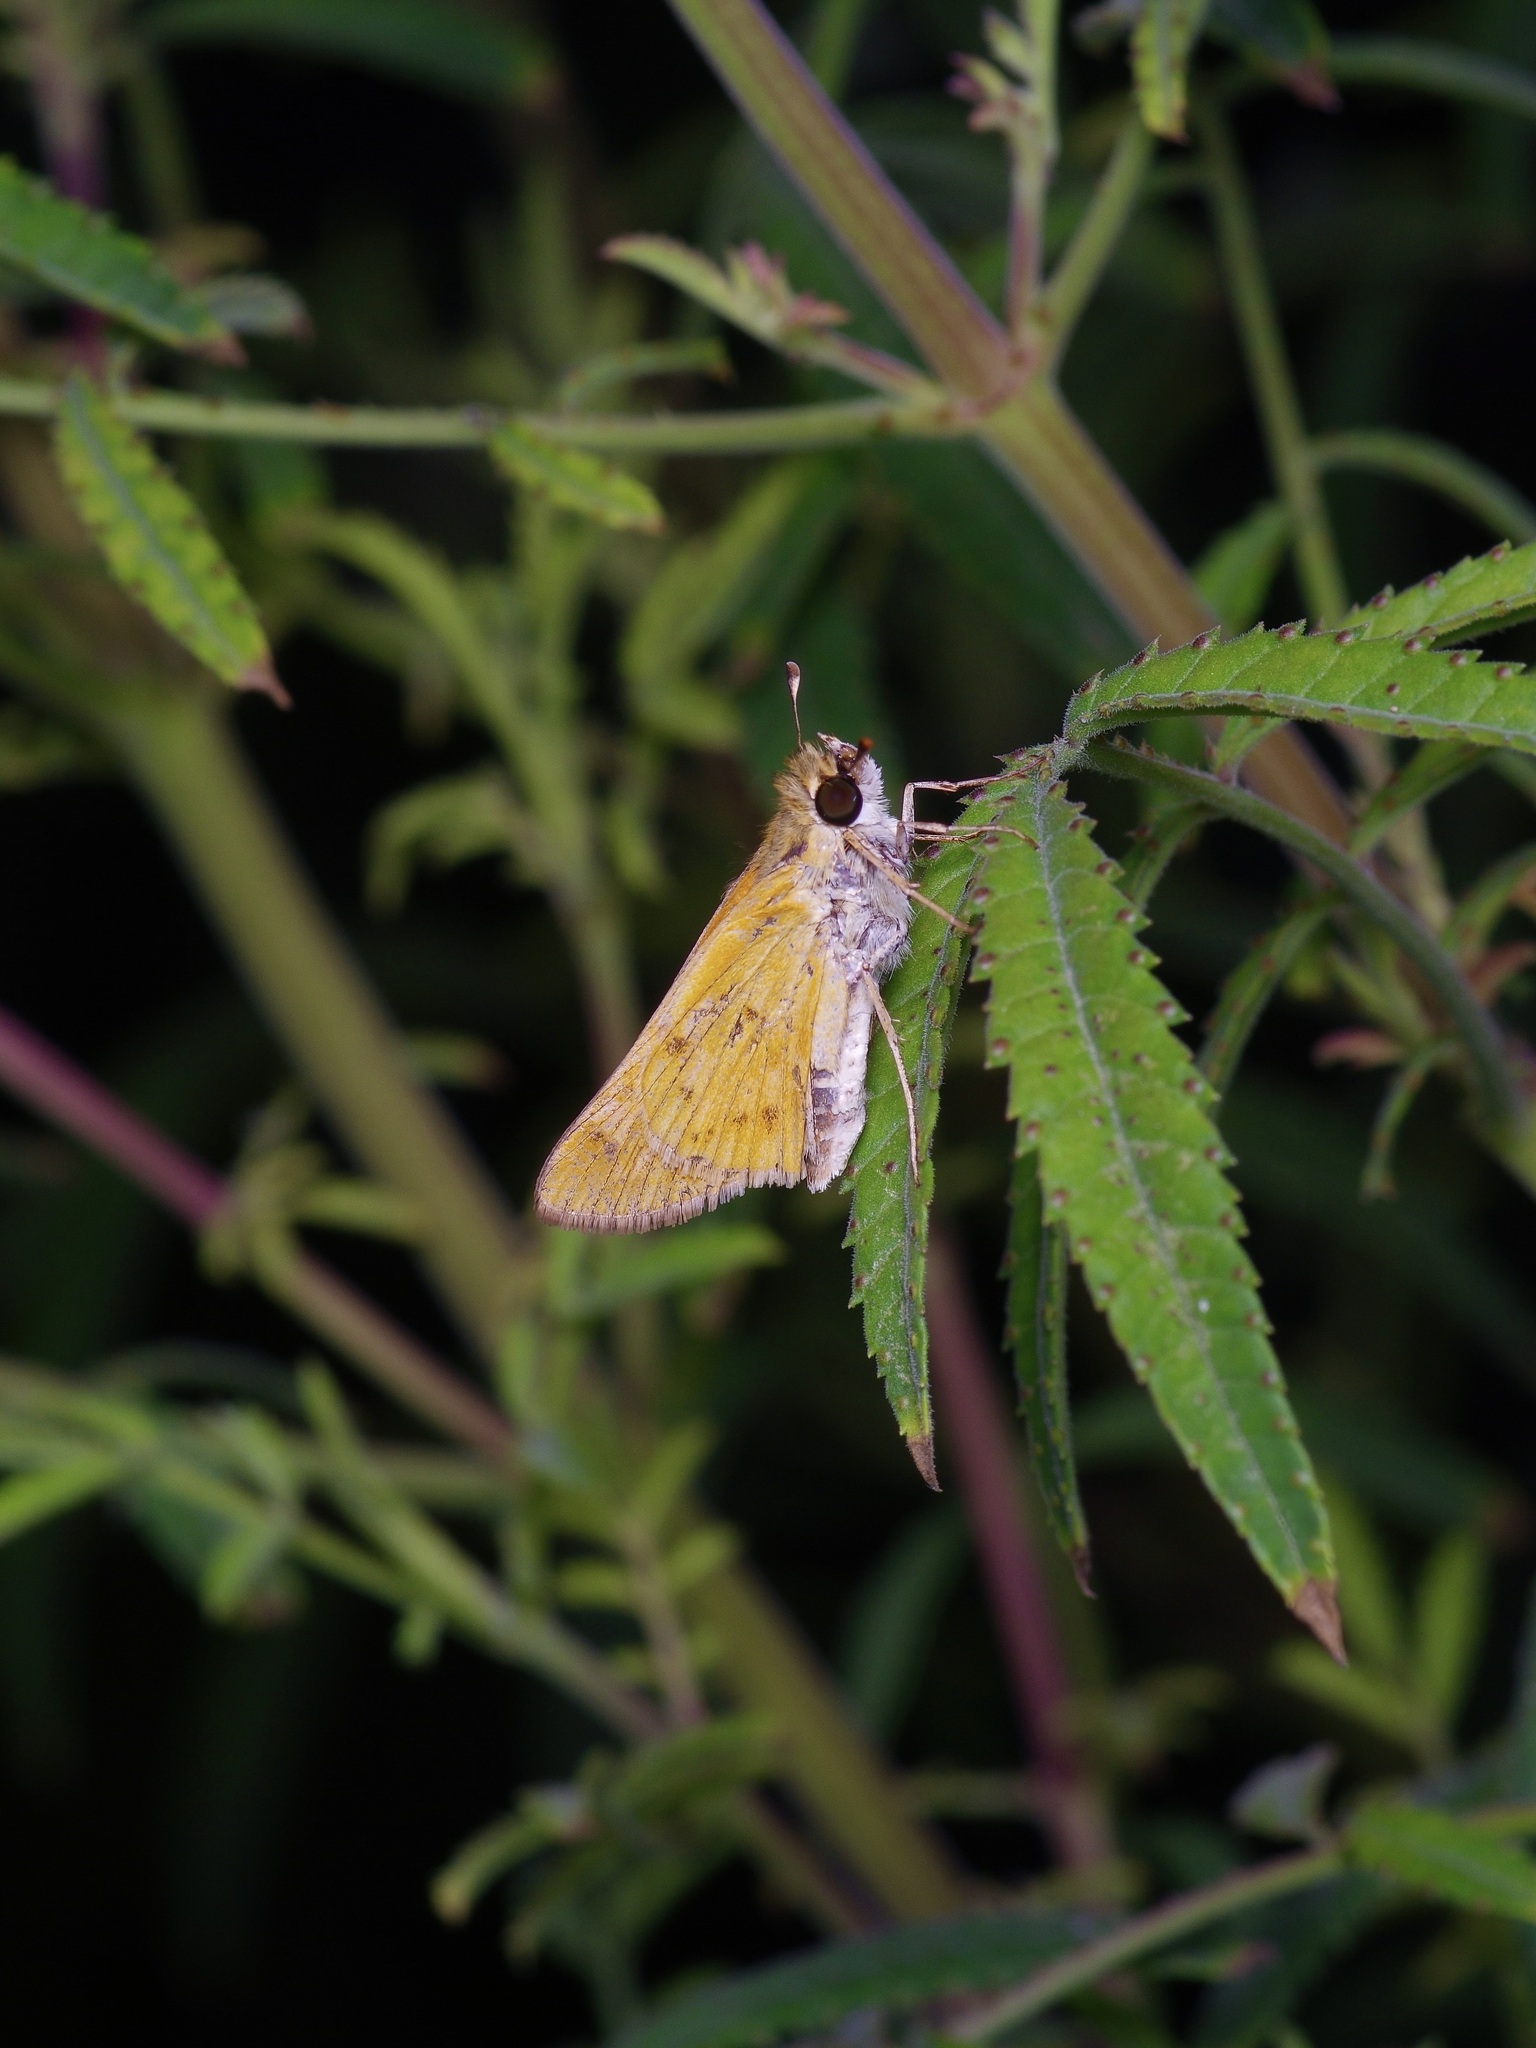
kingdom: Animalia
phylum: Arthropoda
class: Insecta
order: Lepidoptera
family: Hesperiidae
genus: Hylephila
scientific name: Hylephila phyleus
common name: Fiery skipper
